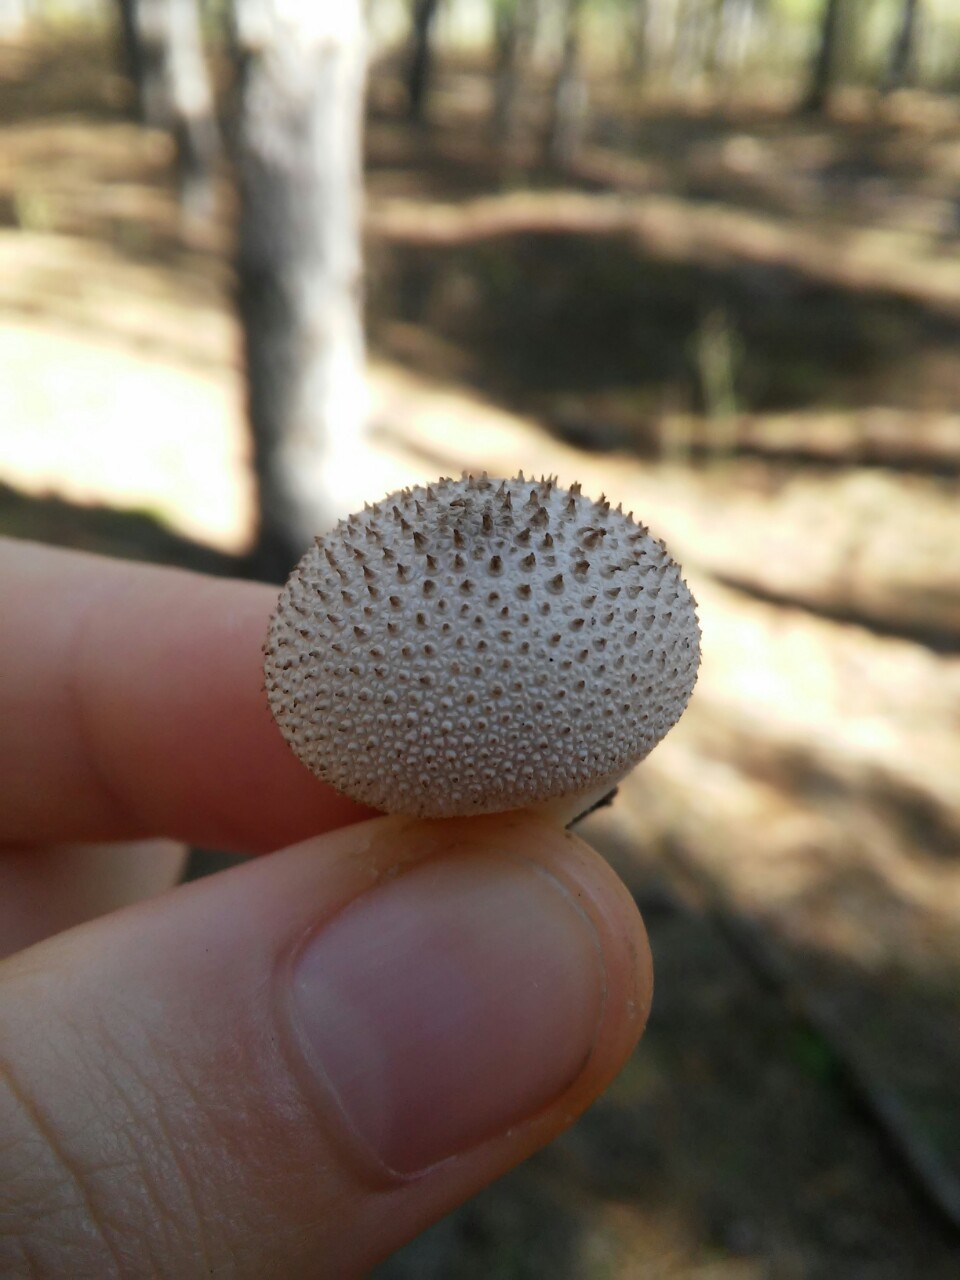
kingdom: Fungi
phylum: Basidiomycota
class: Agaricomycetes
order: Agaricales
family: Lycoperdaceae
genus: Lycoperdon
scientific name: Lycoperdon perlatum
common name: Common puffball
